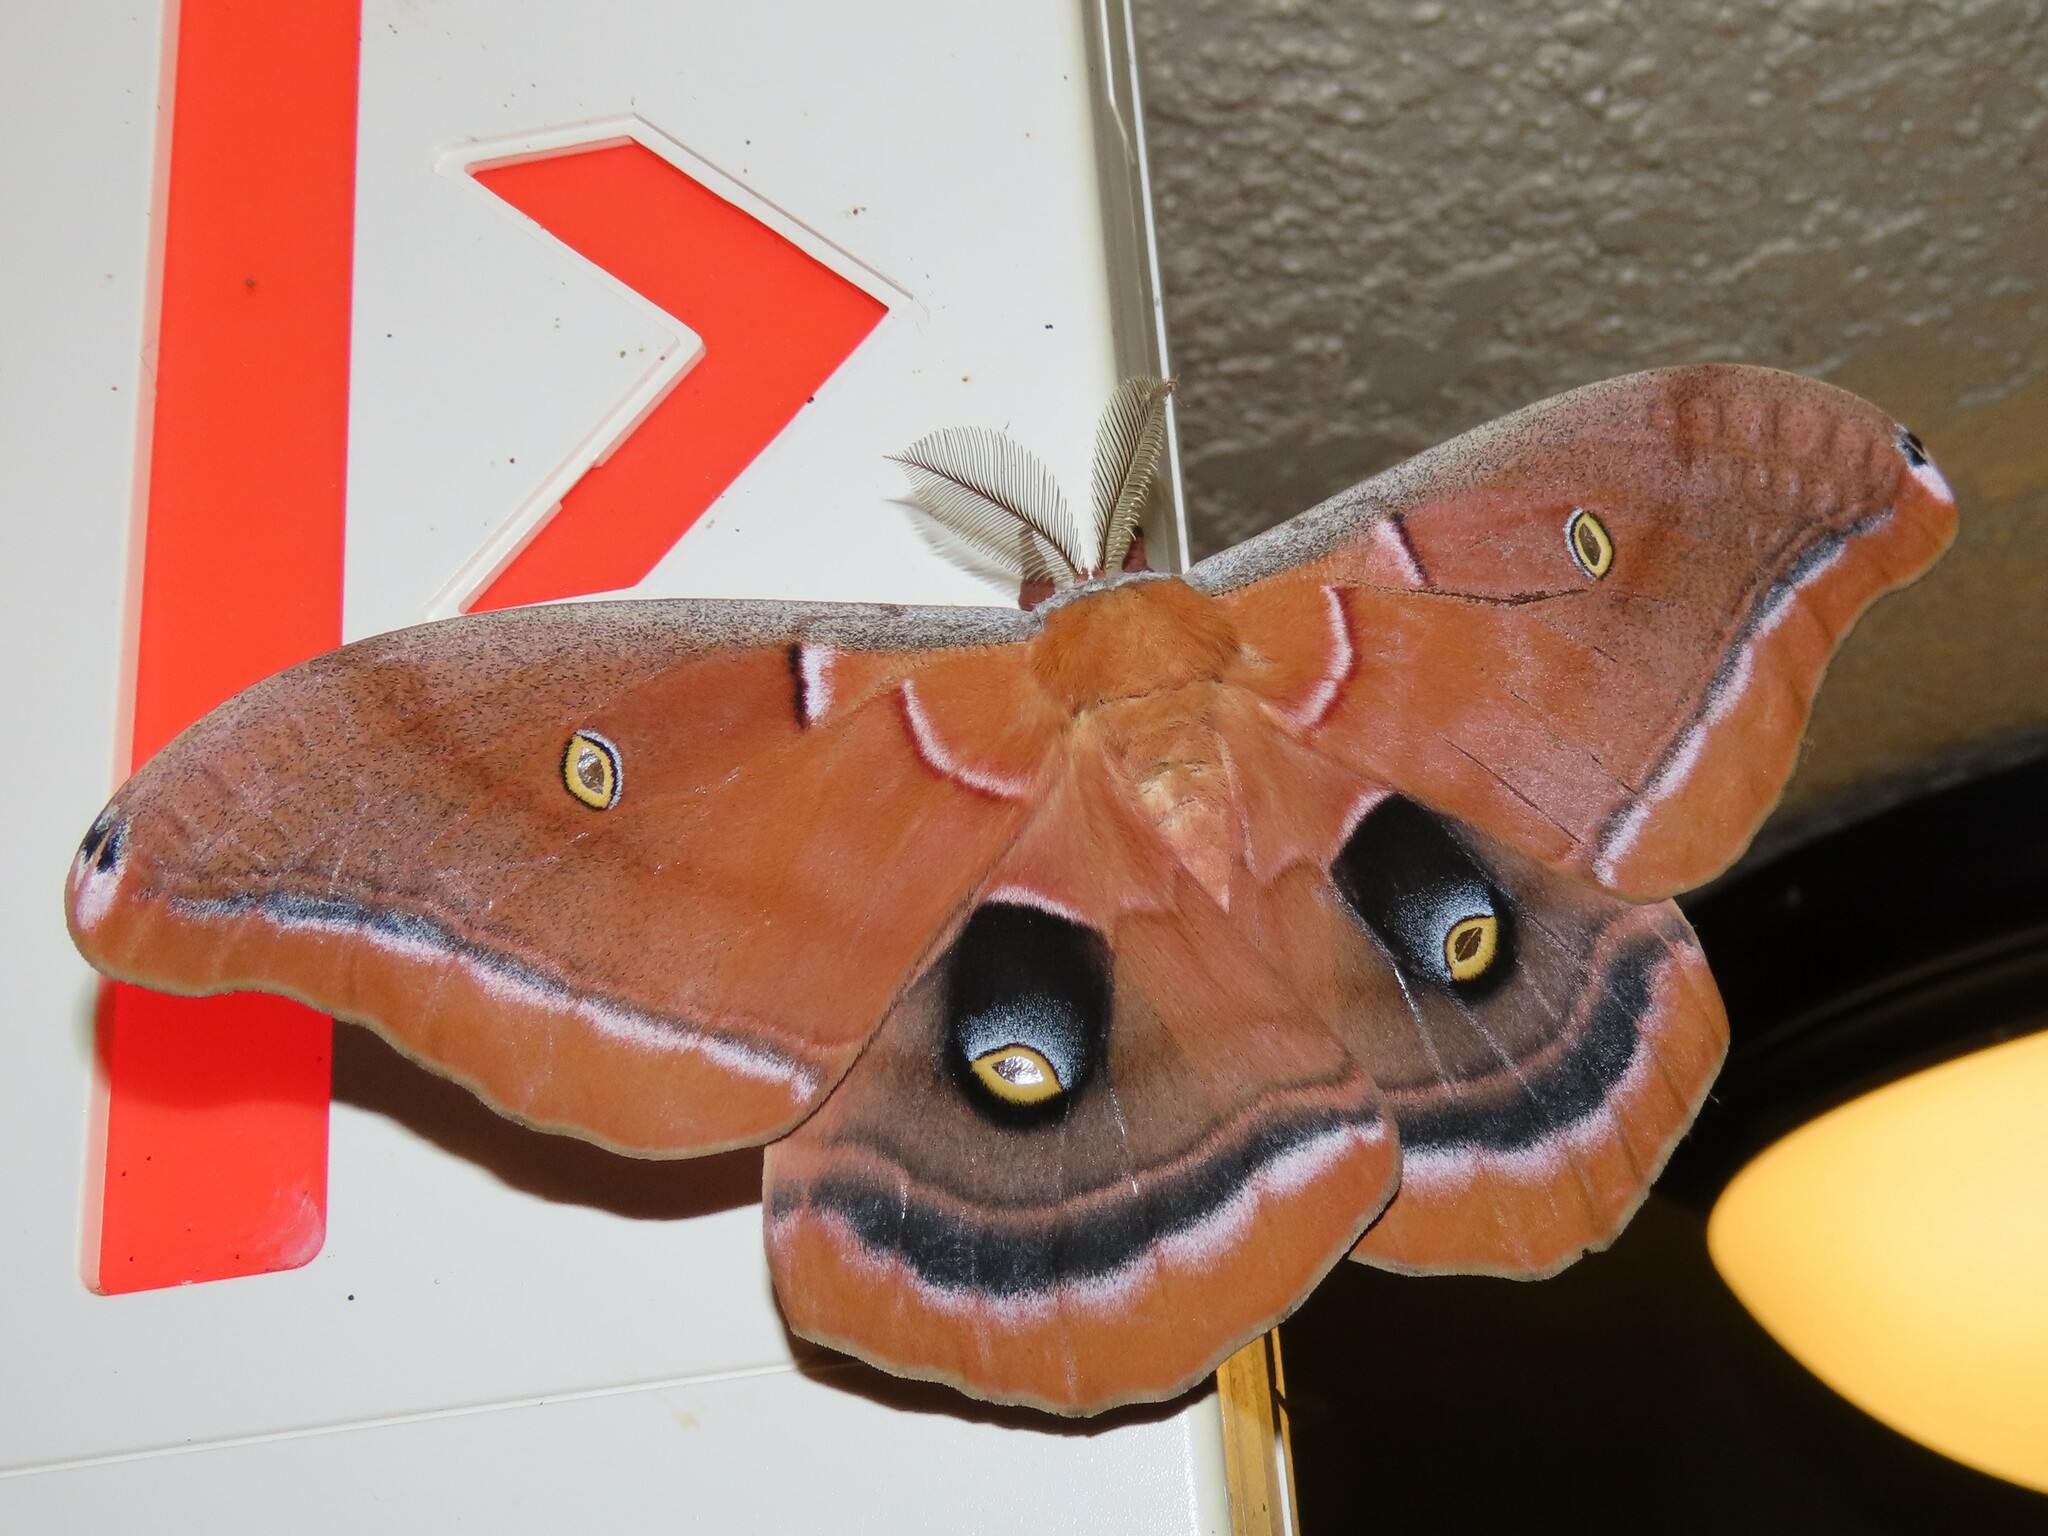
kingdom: Animalia
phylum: Arthropoda
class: Insecta
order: Lepidoptera
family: Saturniidae
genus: Antheraea
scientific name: Antheraea polyphemus
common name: Polyphemus moth
